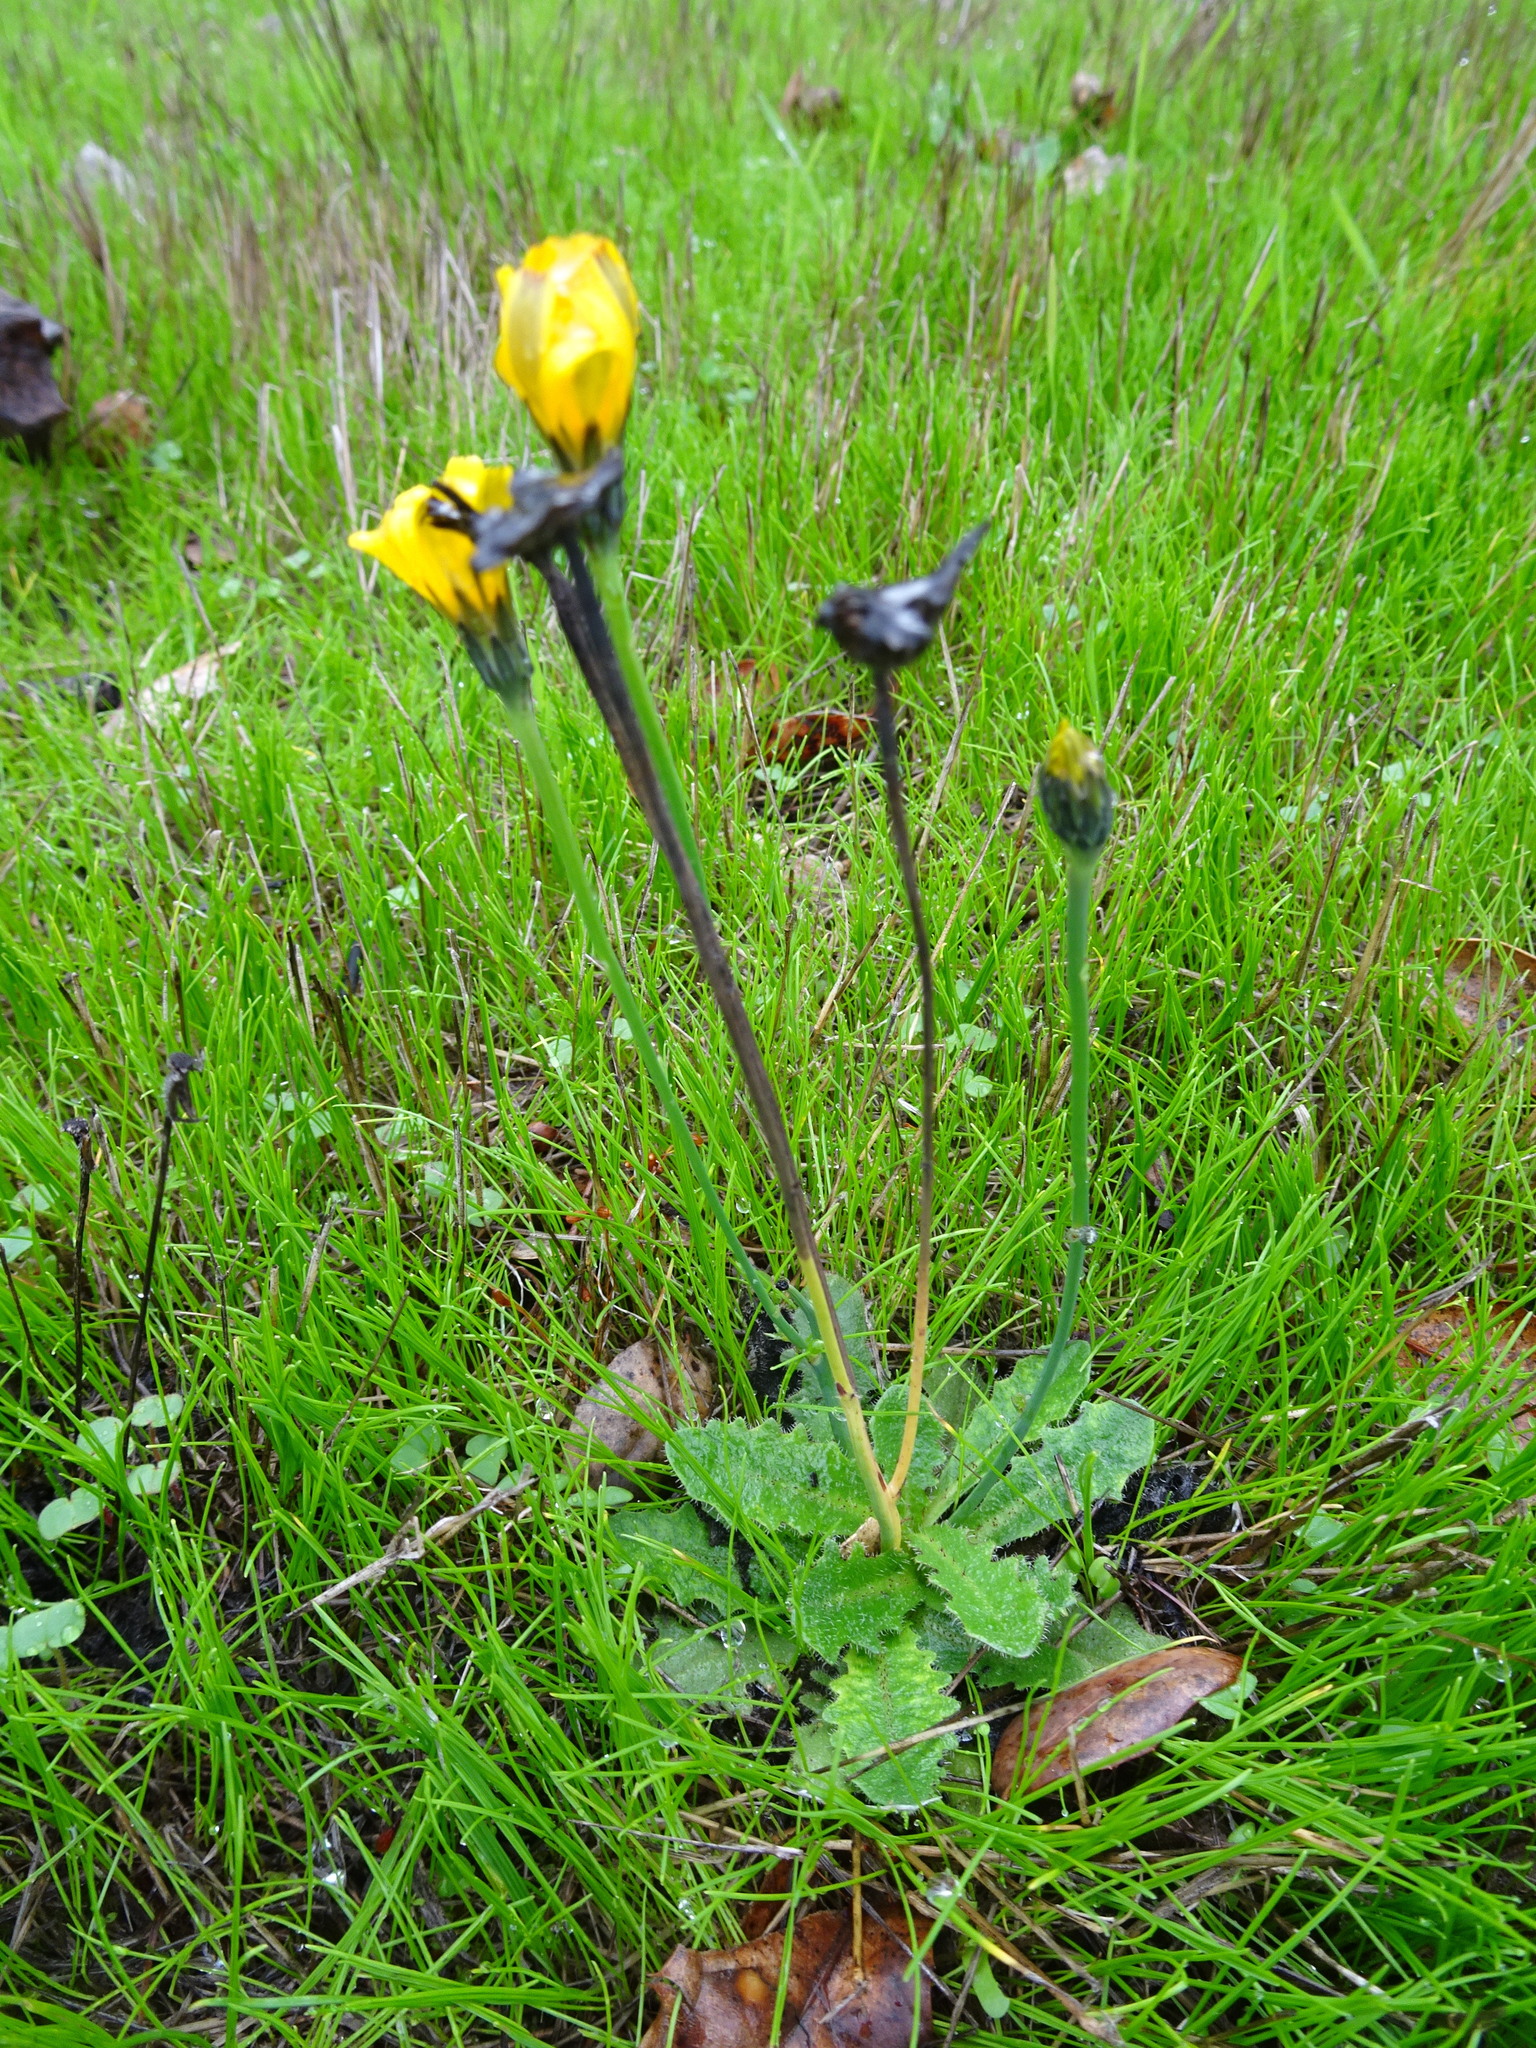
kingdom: Plantae
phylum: Tracheophyta
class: Magnoliopsida
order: Asterales
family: Asteraceae
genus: Hypochaeris
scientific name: Hypochaeris radicata
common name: Flatweed
